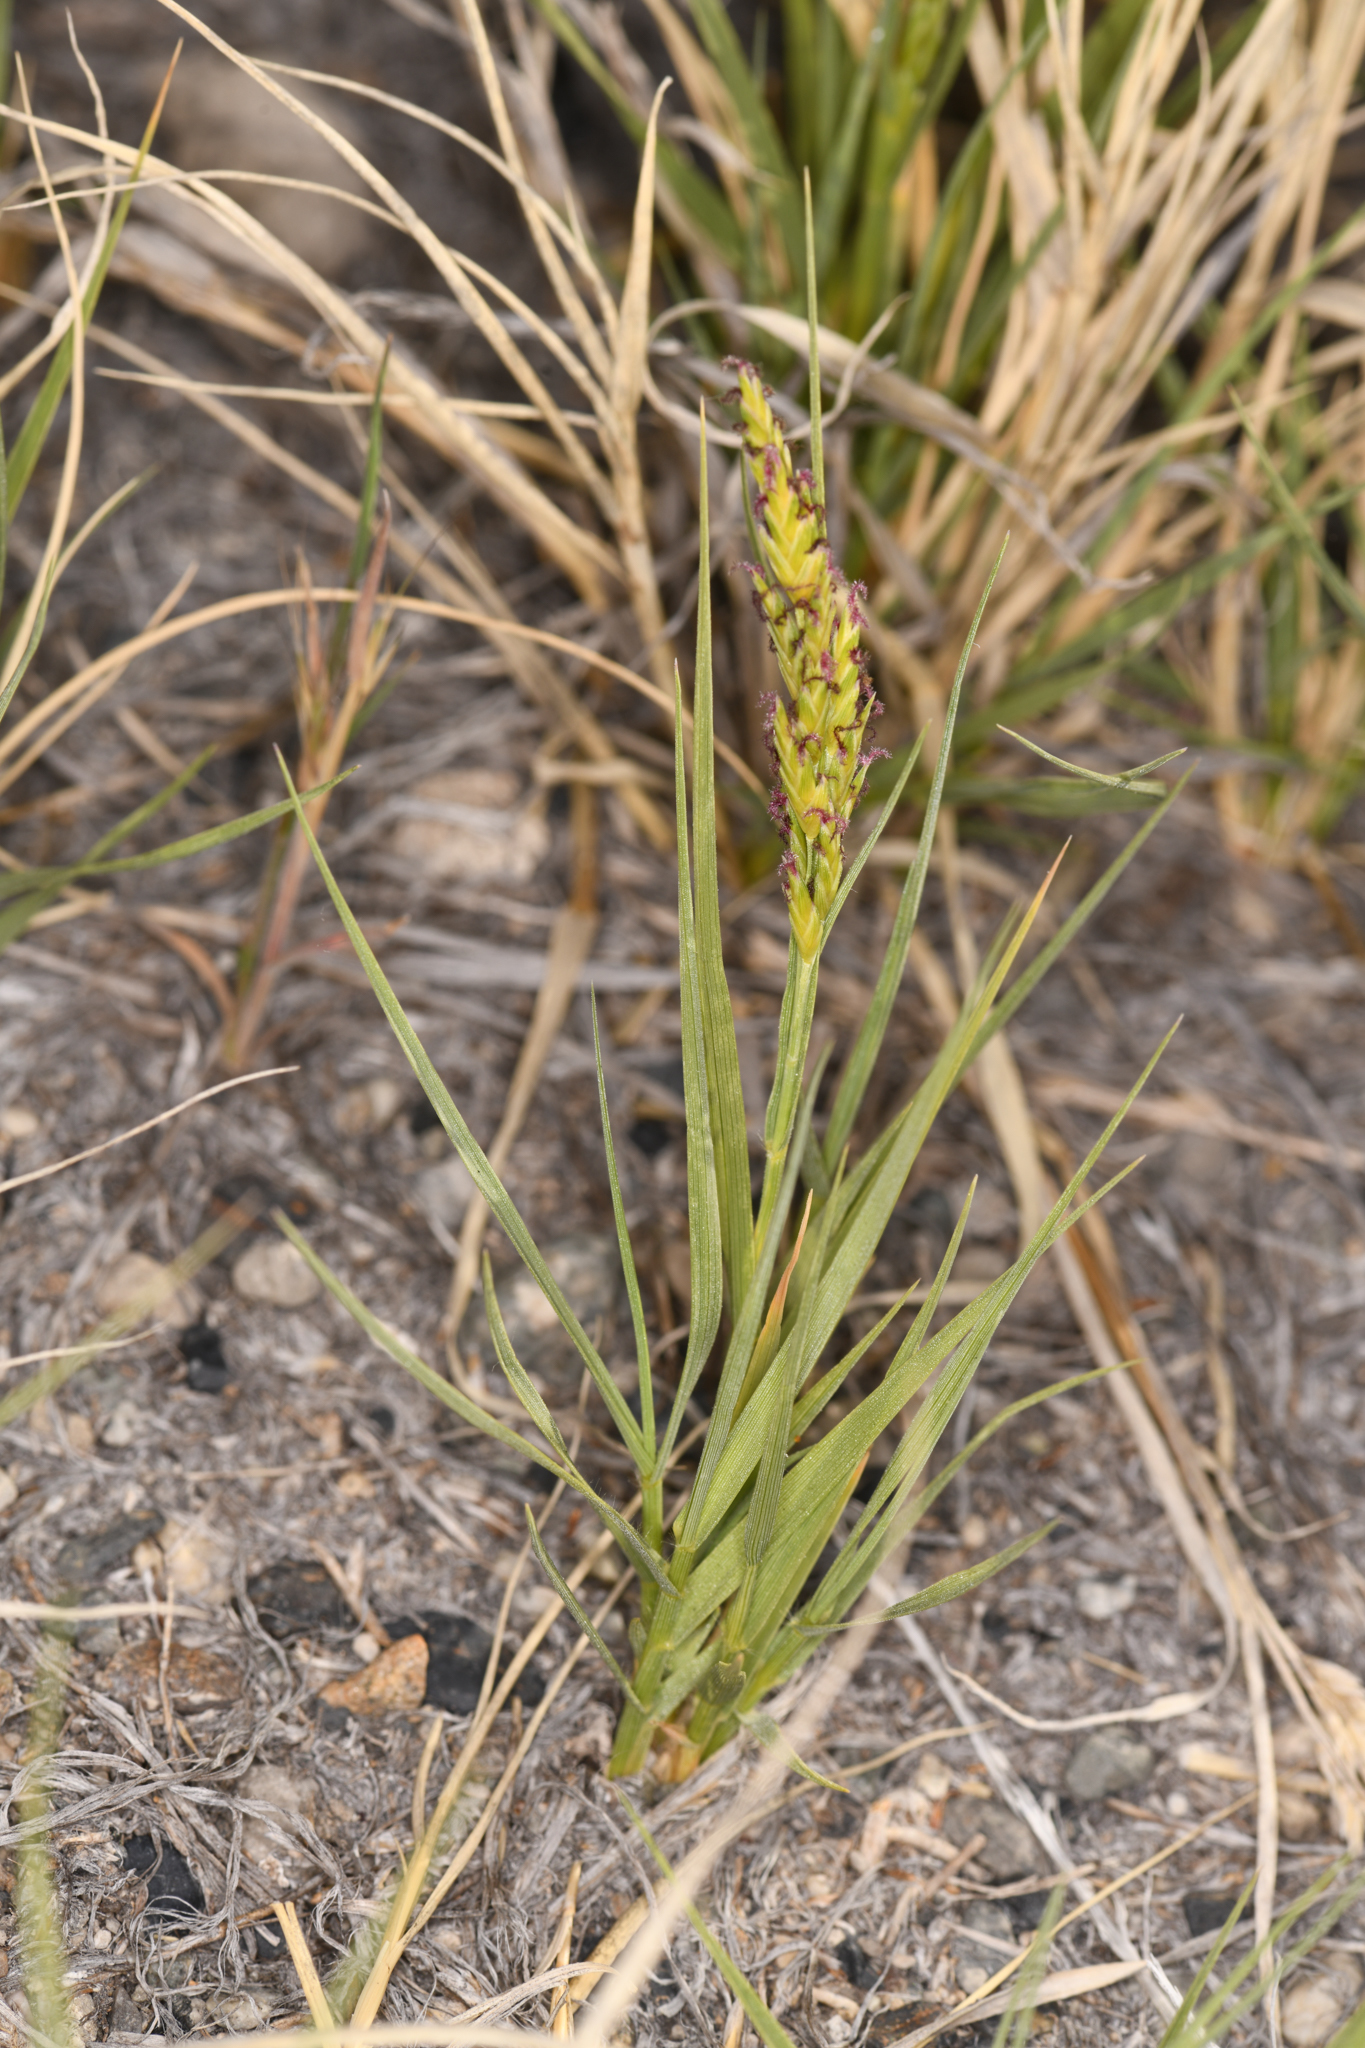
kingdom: Plantae
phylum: Tracheophyta
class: Liliopsida
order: Poales
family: Poaceae
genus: Distichlis
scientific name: Distichlis spicata
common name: Saltgrass
